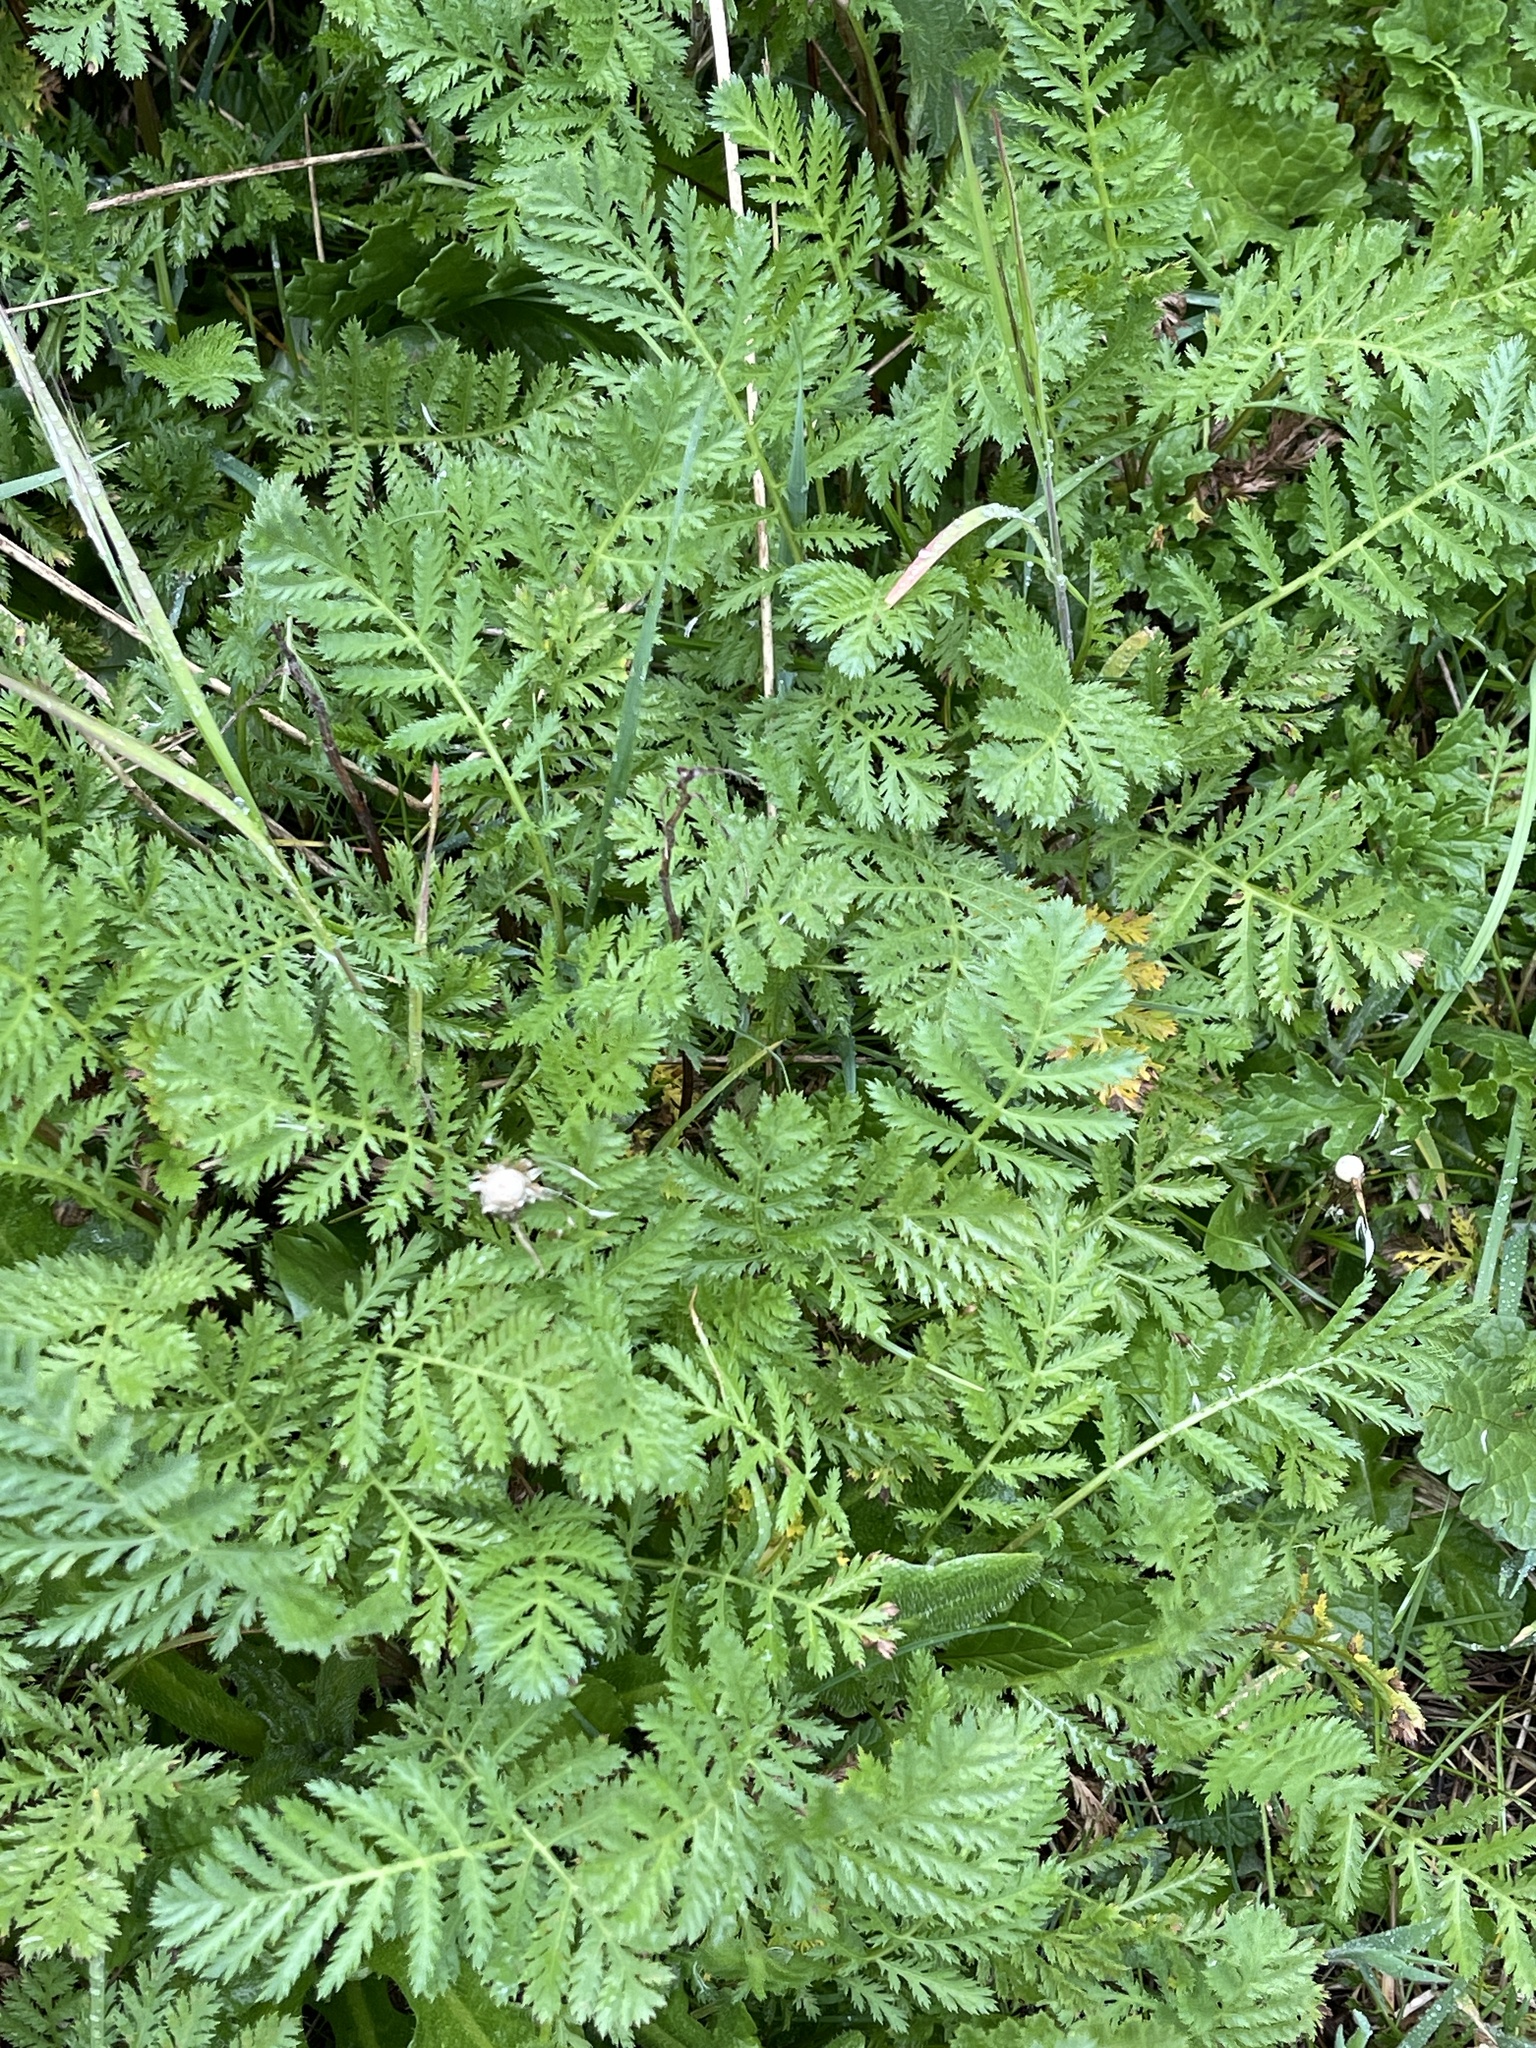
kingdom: Plantae
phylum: Tracheophyta
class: Magnoliopsida
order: Asterales
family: Asteraceae
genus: Tanacetum
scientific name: Tanacetum vulgare
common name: Common tansy
